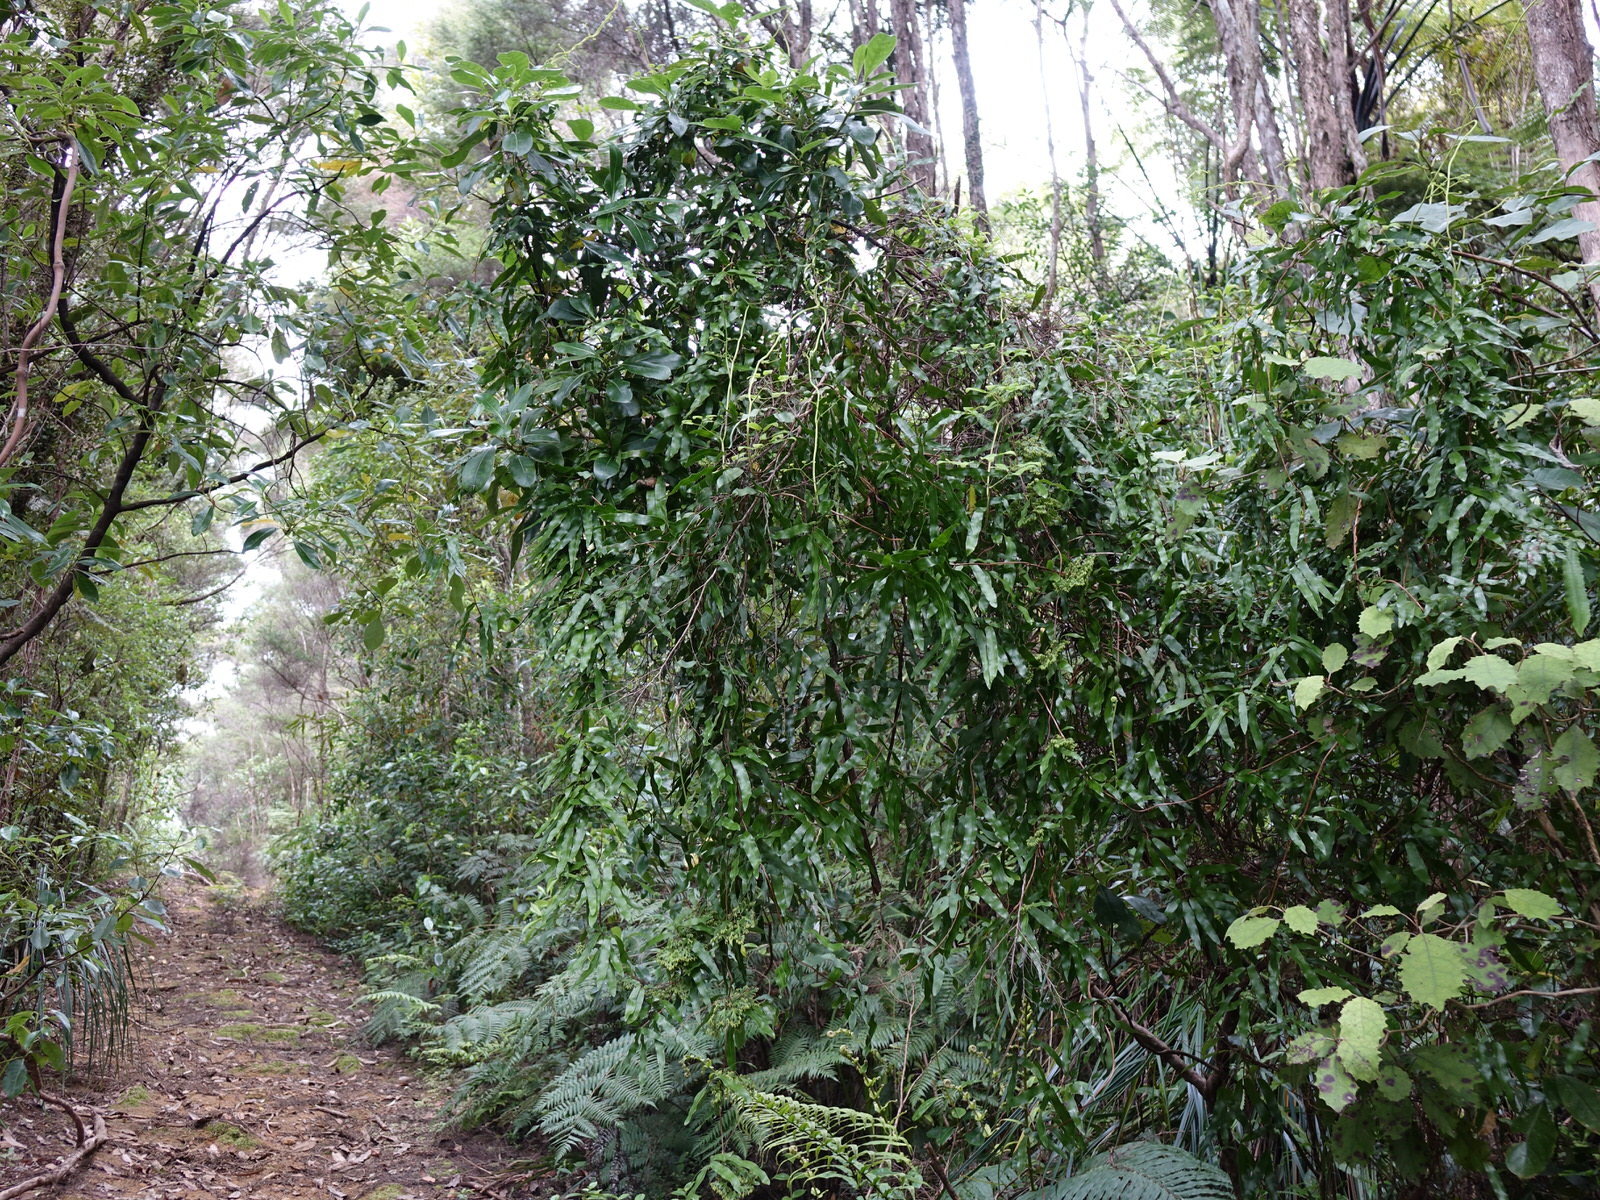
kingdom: Plantae
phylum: Tracheophyta
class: Polypodiopsida
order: Schizaeales
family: Lygodiaceae
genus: Lygodium
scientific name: Lygodium articulatum
